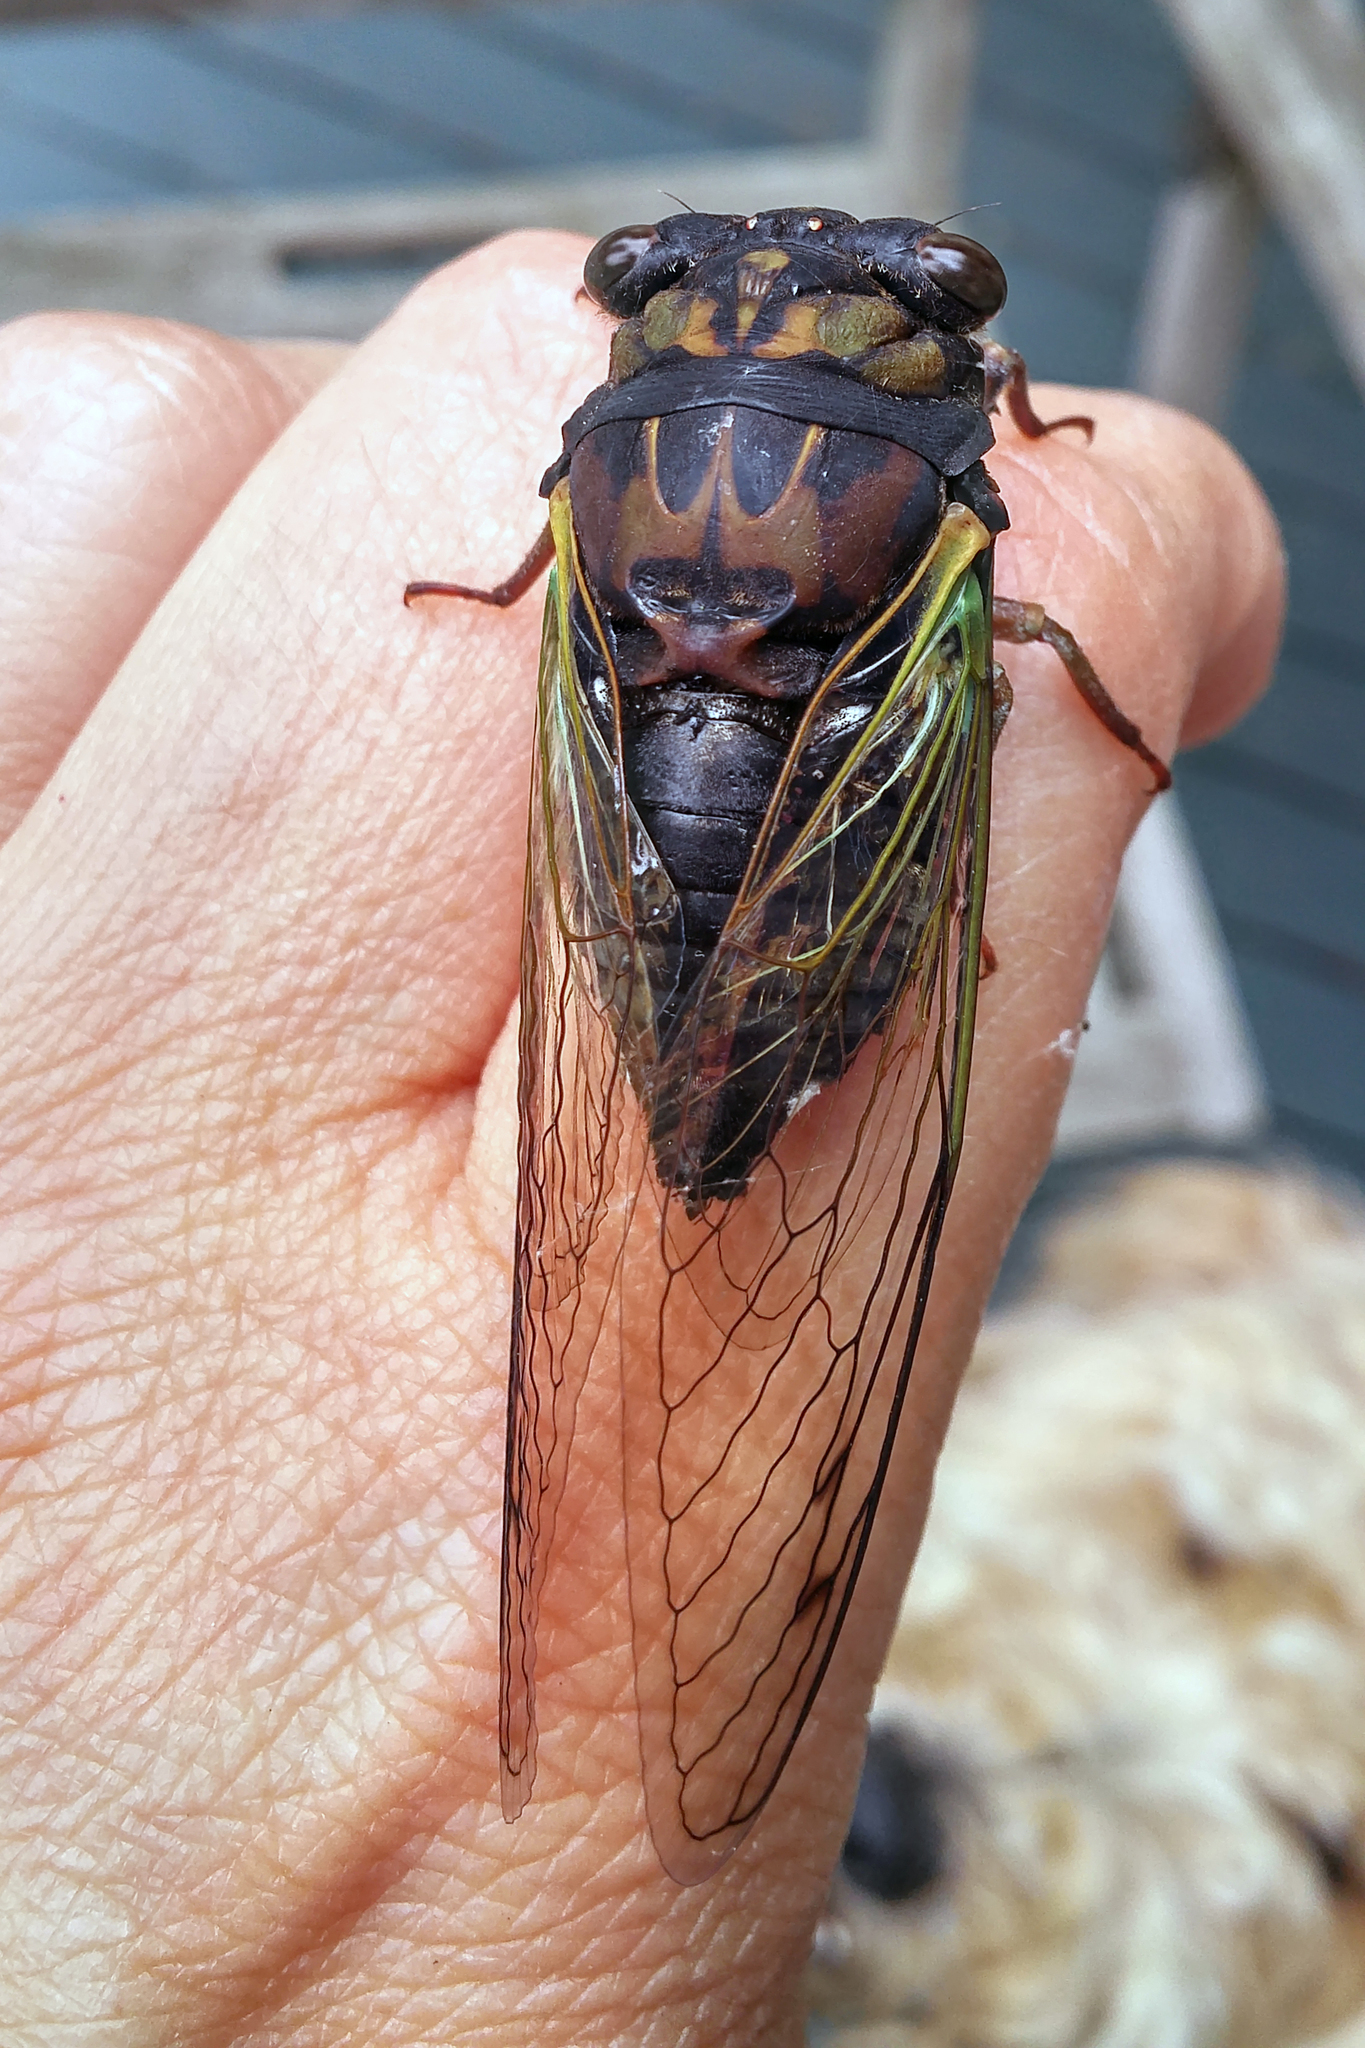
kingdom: Animalia
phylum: Arthropoda
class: Insecta
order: Hemiptera
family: Cicadidae
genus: Neotibicen
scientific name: Neotibicen lyricen
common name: Lyric cicada
